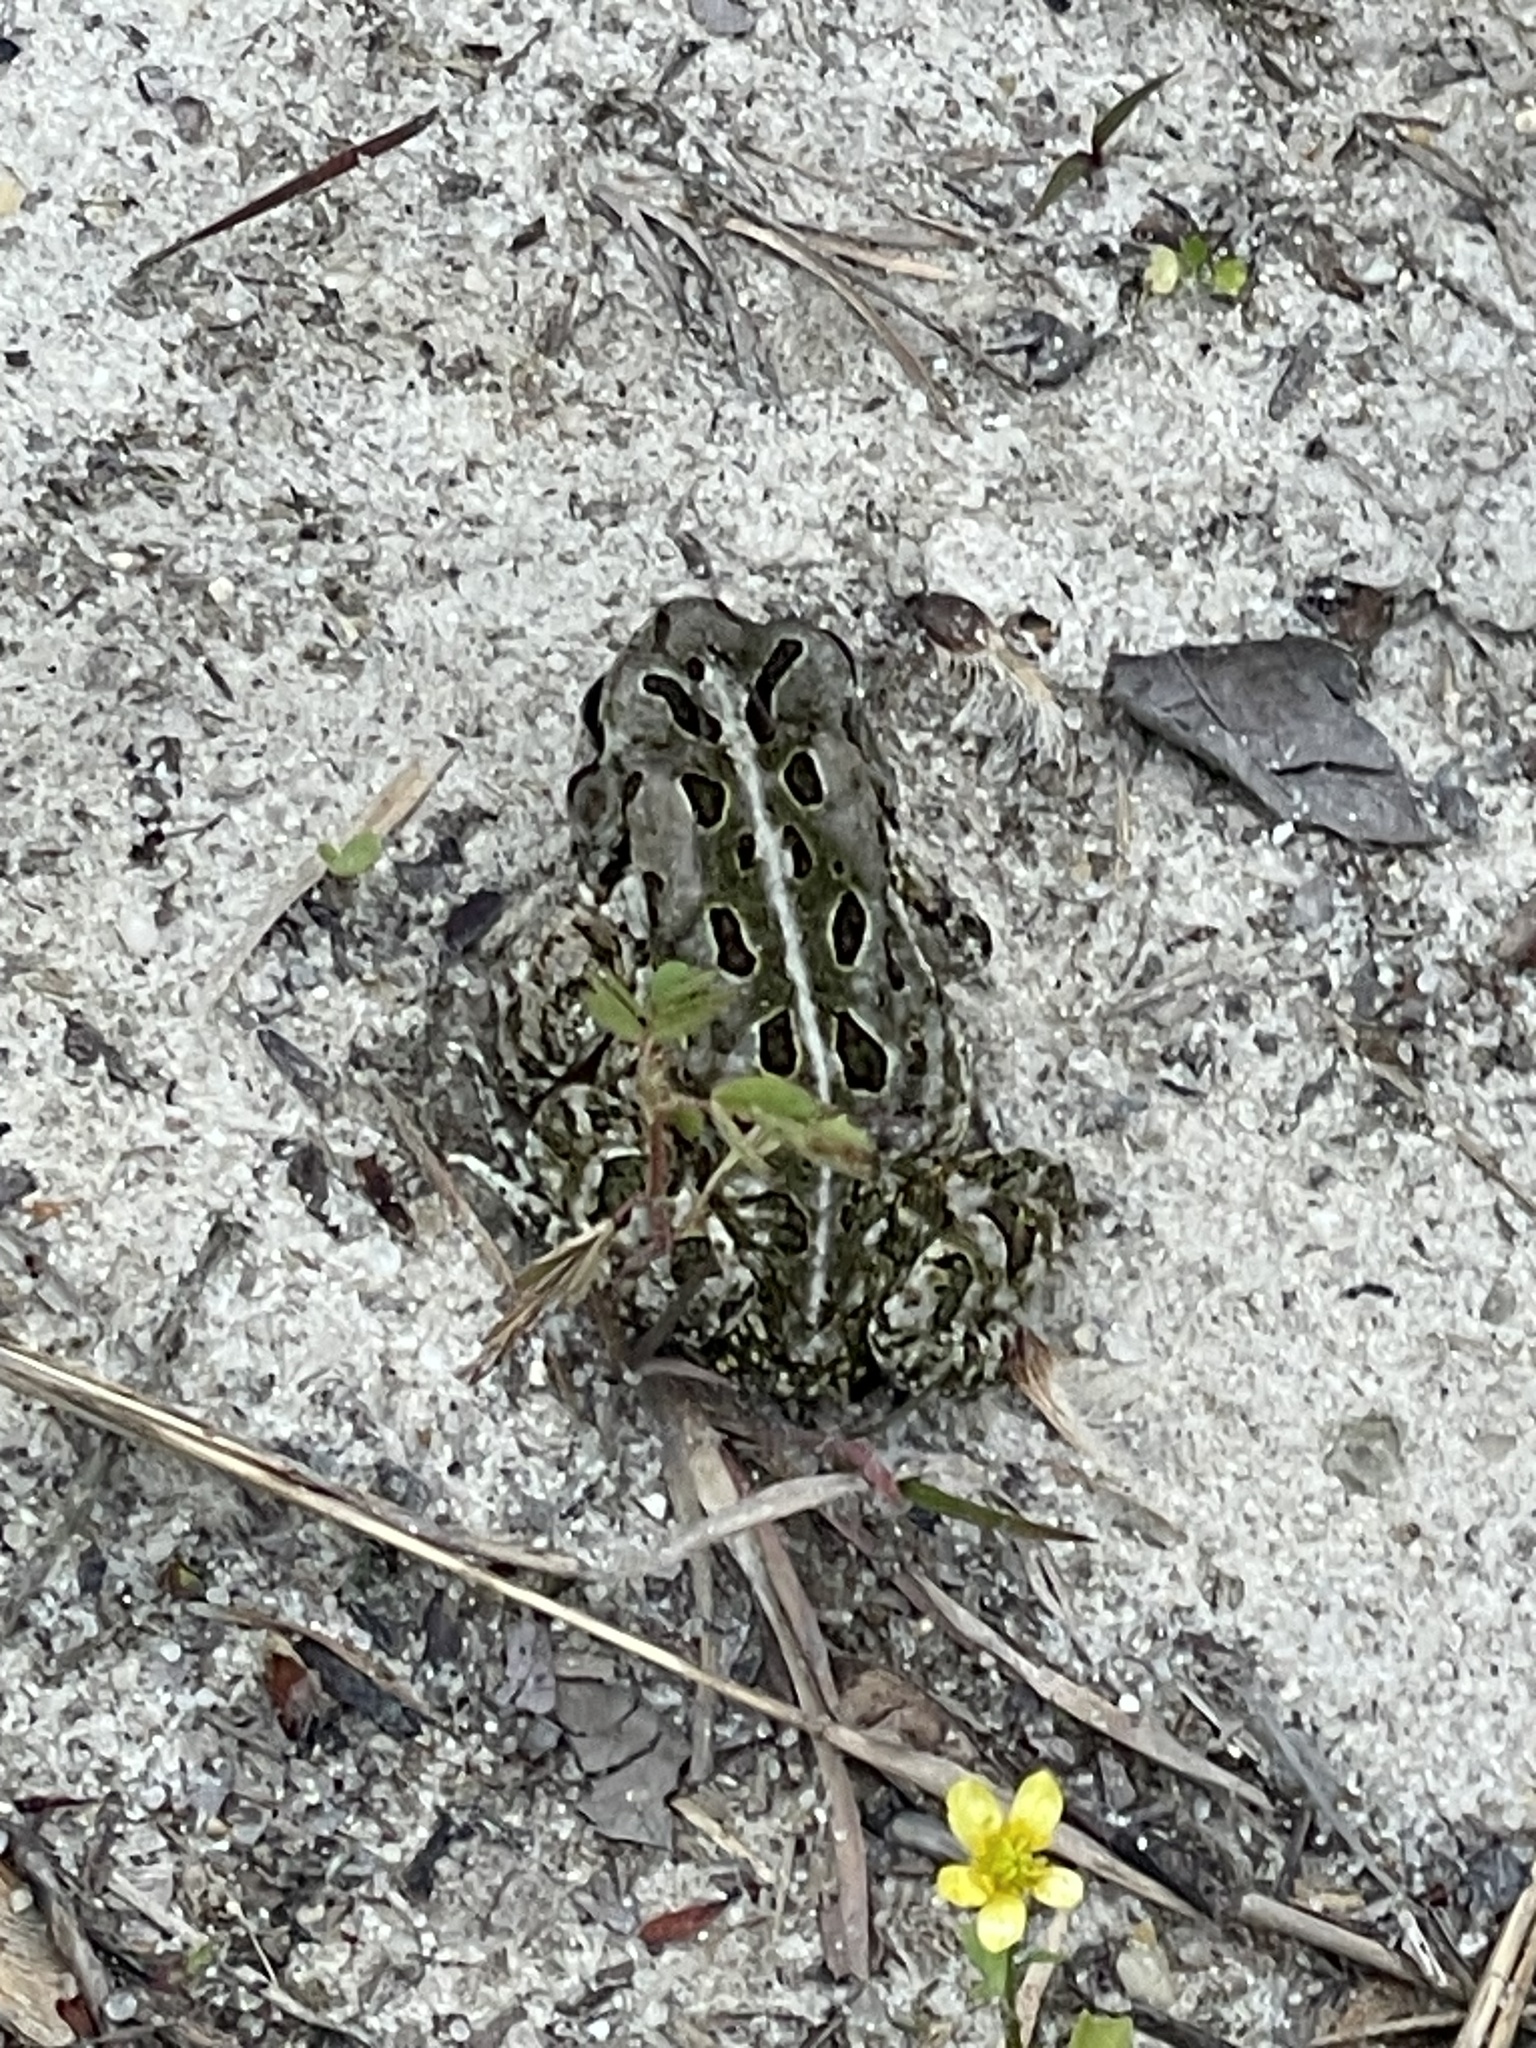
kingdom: Animalia
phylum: Chordata
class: Amphibia
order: Anura
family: Bufonidae
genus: Anaxyrus
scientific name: Anaxyrus fowleri
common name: Fowler's toad
